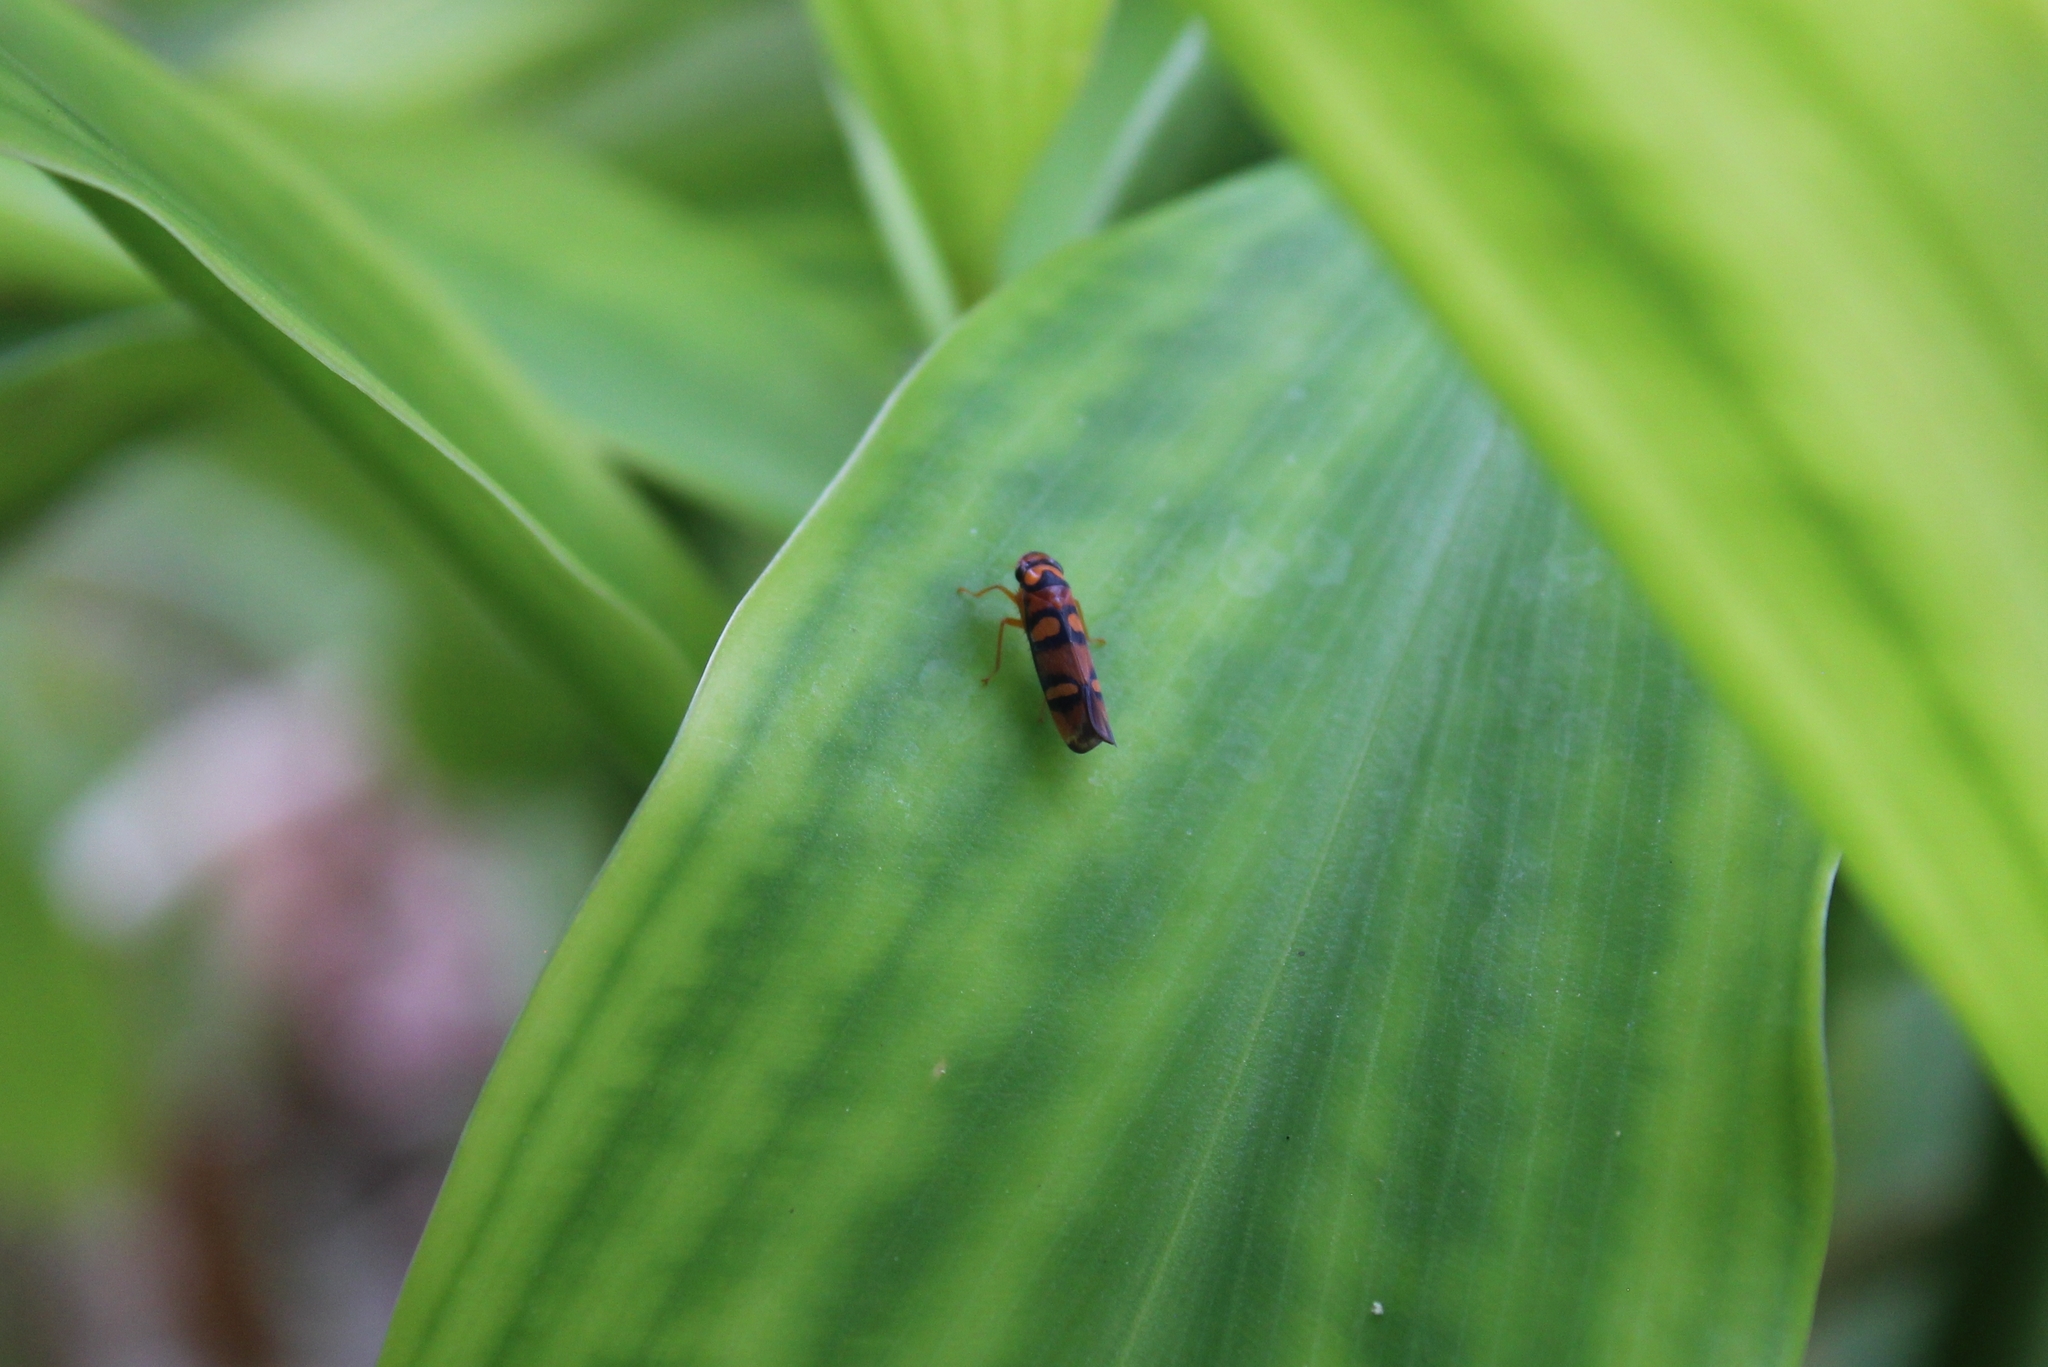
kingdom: Animalia
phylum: Arthropoda
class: Insecta
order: Hemiptera
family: Cicadellidae
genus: Pawiloma
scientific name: Pawiloma jucunda
